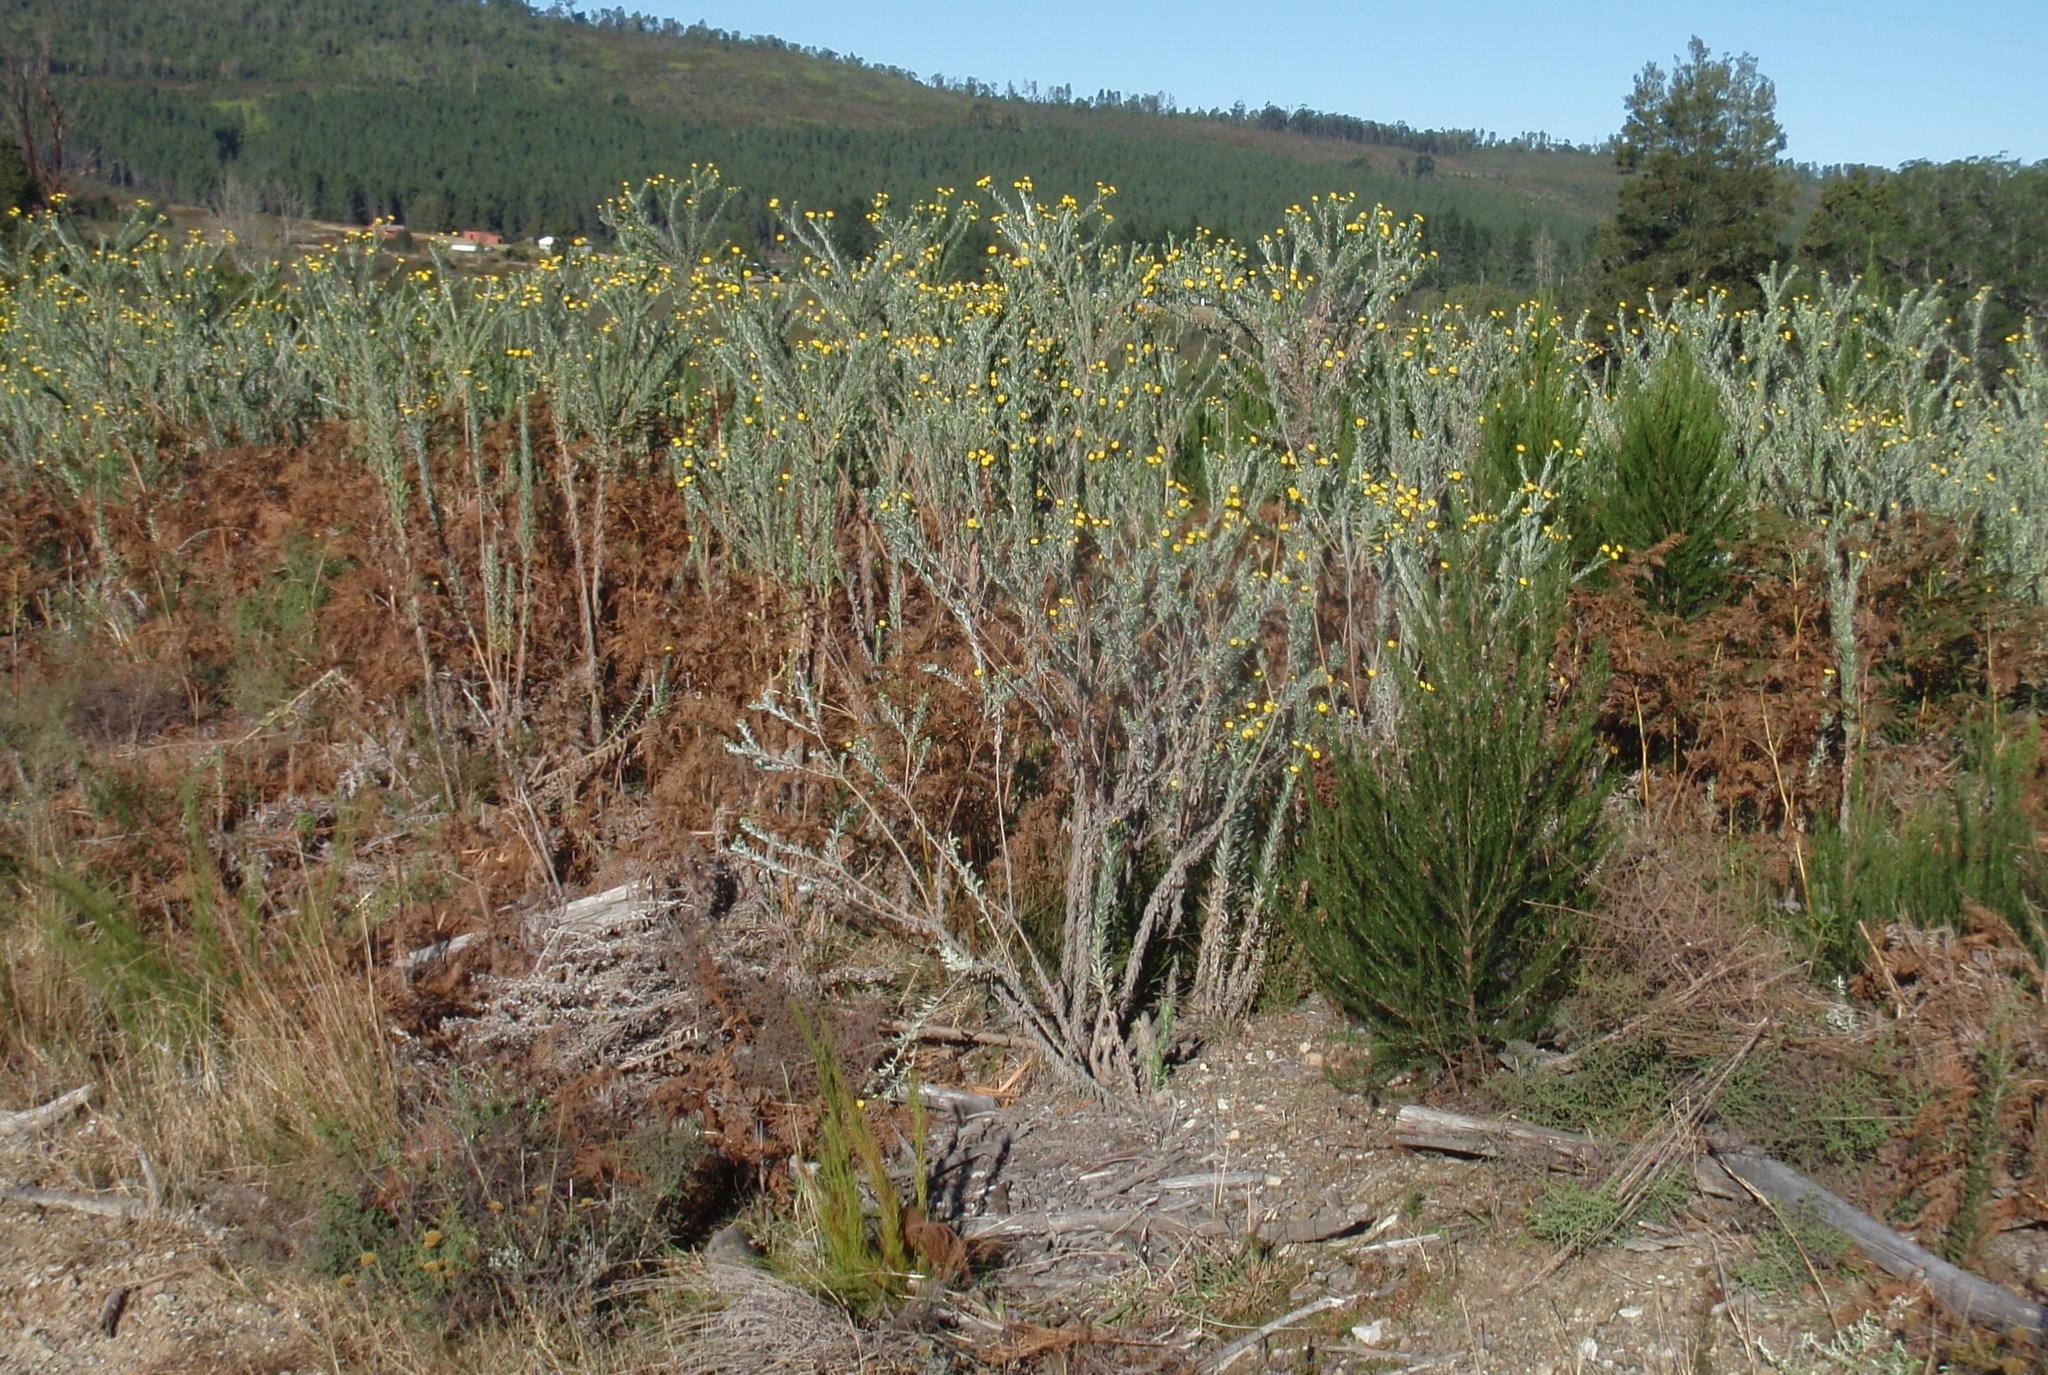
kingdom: Plantae
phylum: Tracheophyta
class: Magnoliopsida
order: Asterales
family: Asteraceae
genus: Schistostephium
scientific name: Schistostephium umbellatum
